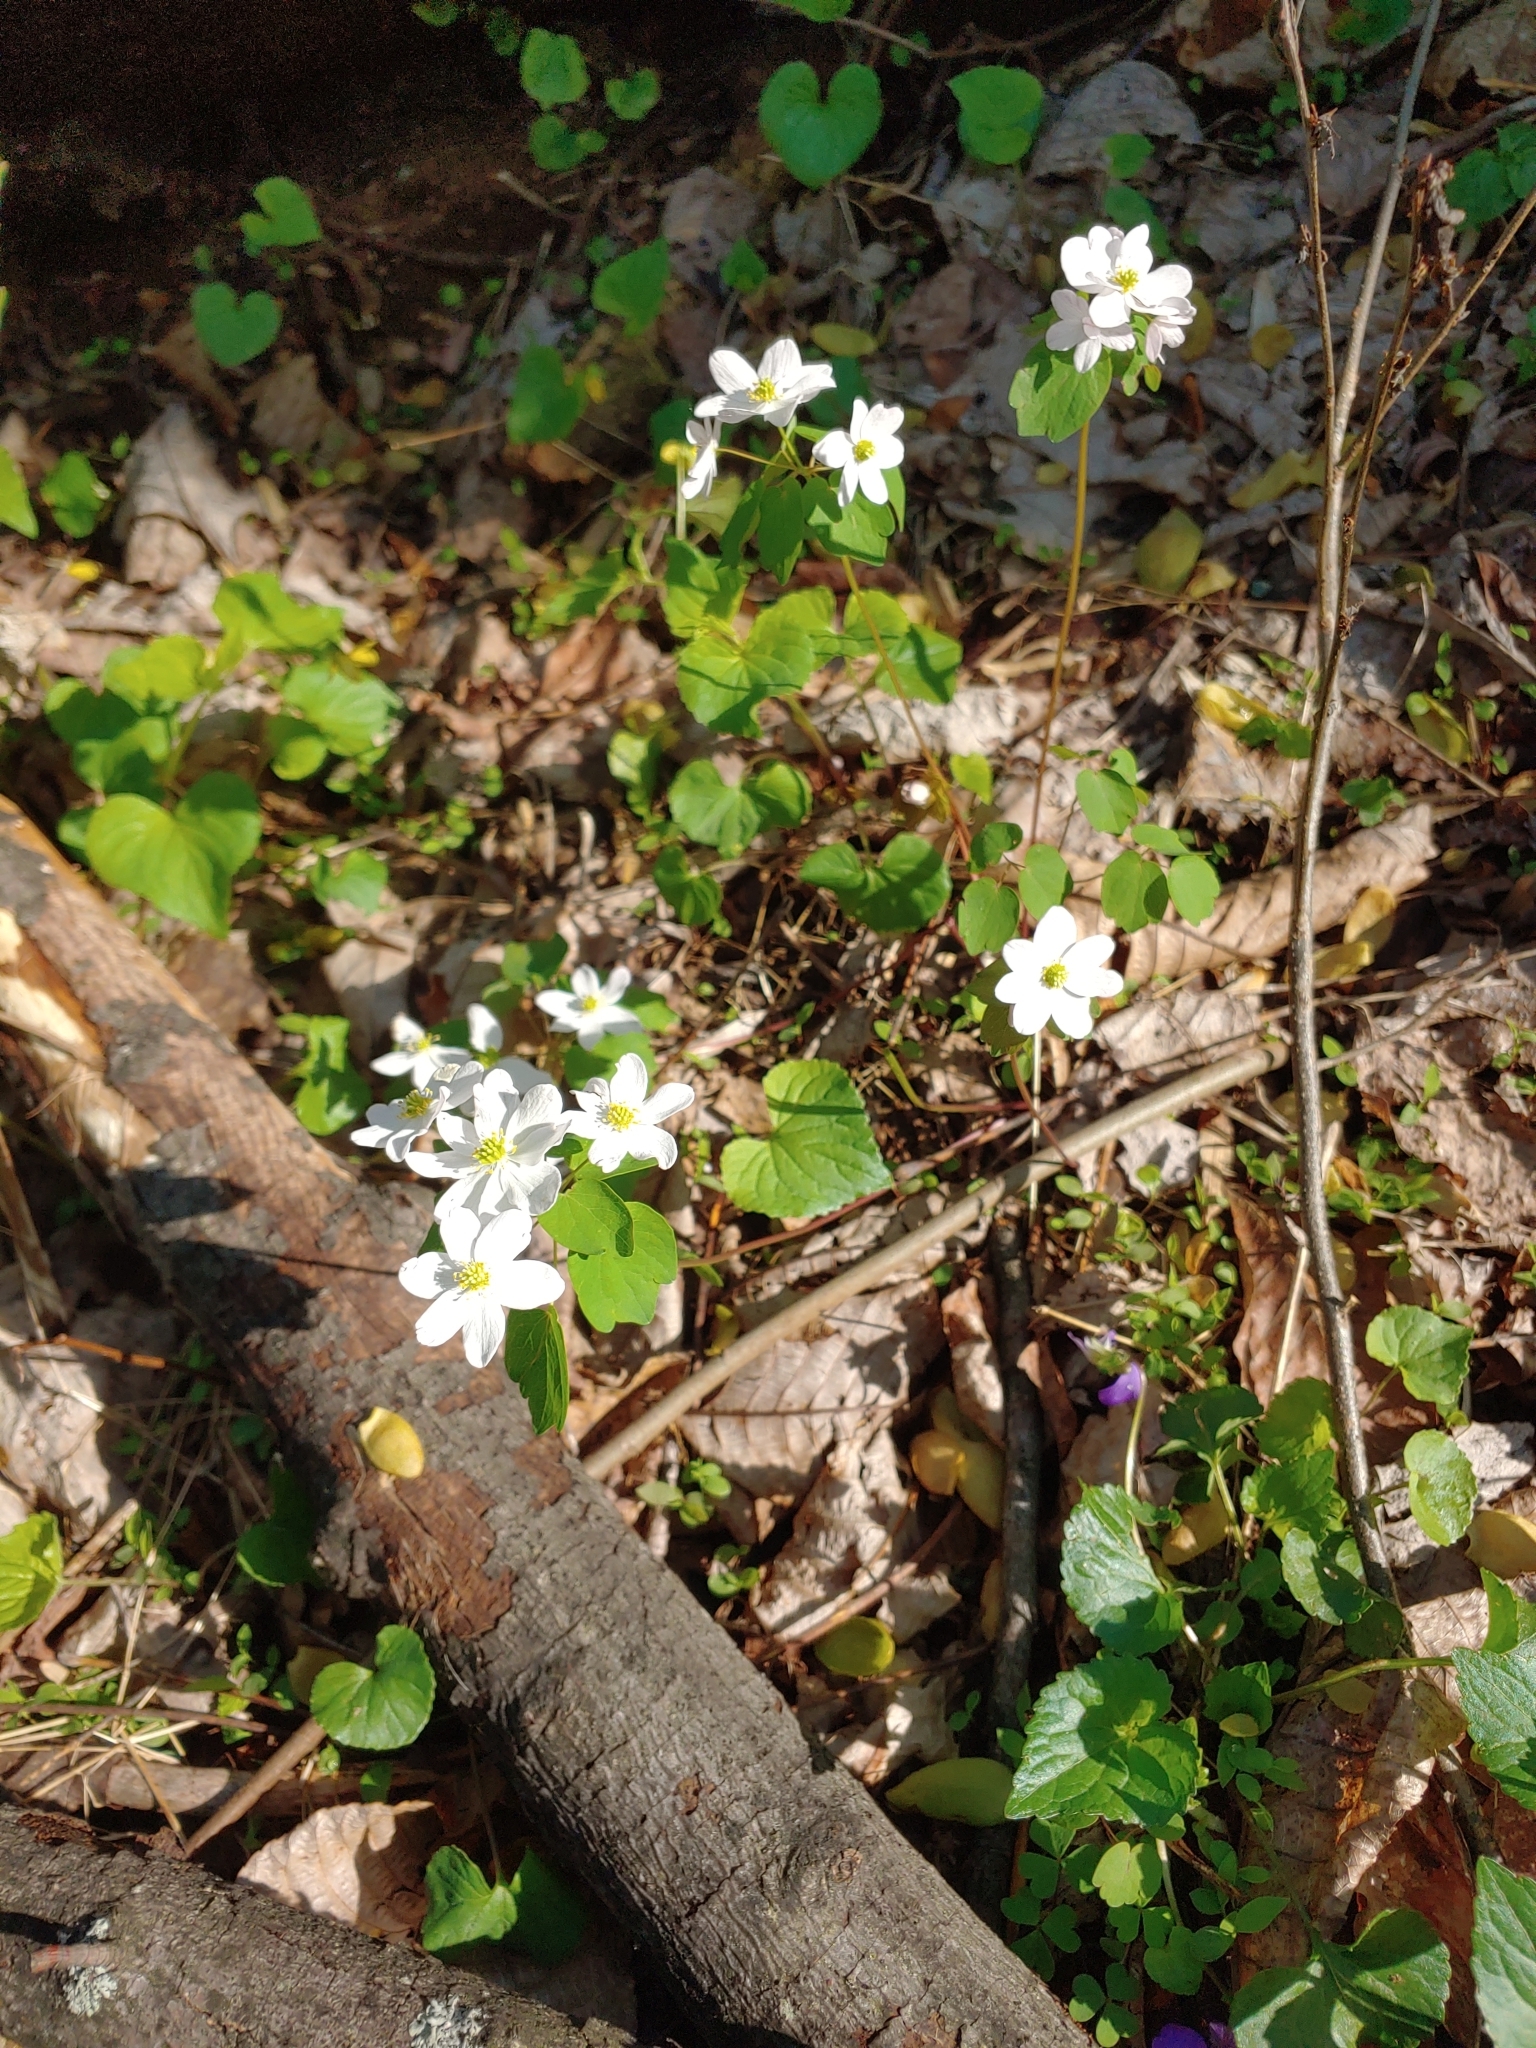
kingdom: Plantae
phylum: Tracheophyta
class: Magnoliopsida
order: Ranunculales
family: Ranunculaceae
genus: Thalictrum
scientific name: Thalictrum thalictroides
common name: Rue-anemone
